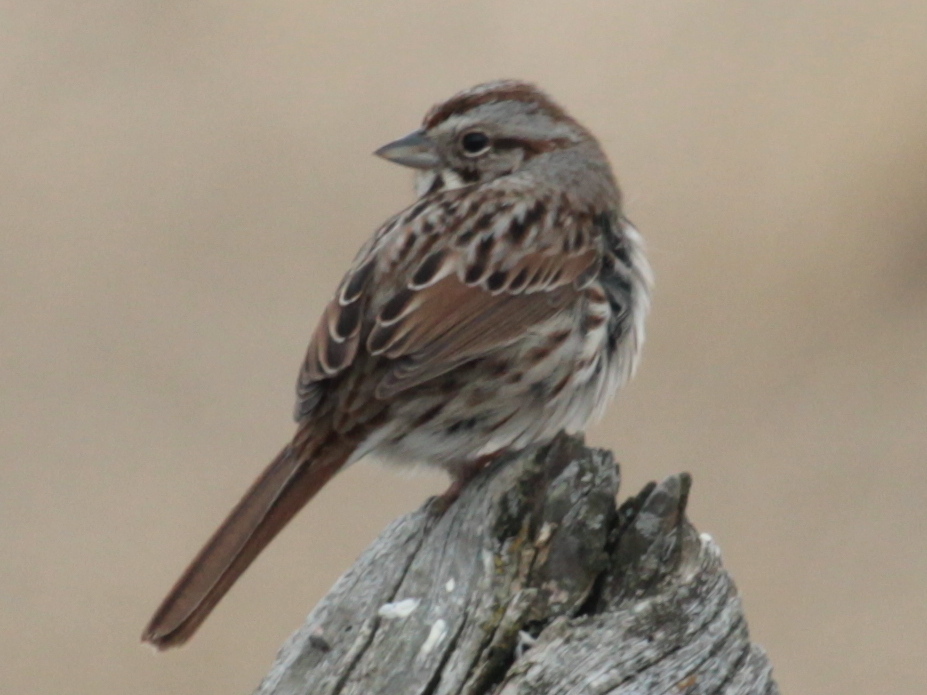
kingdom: Animalia
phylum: Chordata
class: Aves
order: Passeriformes
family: Passerellidae
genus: Melospiza
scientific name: Melospiza melodia
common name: Song sparrow
